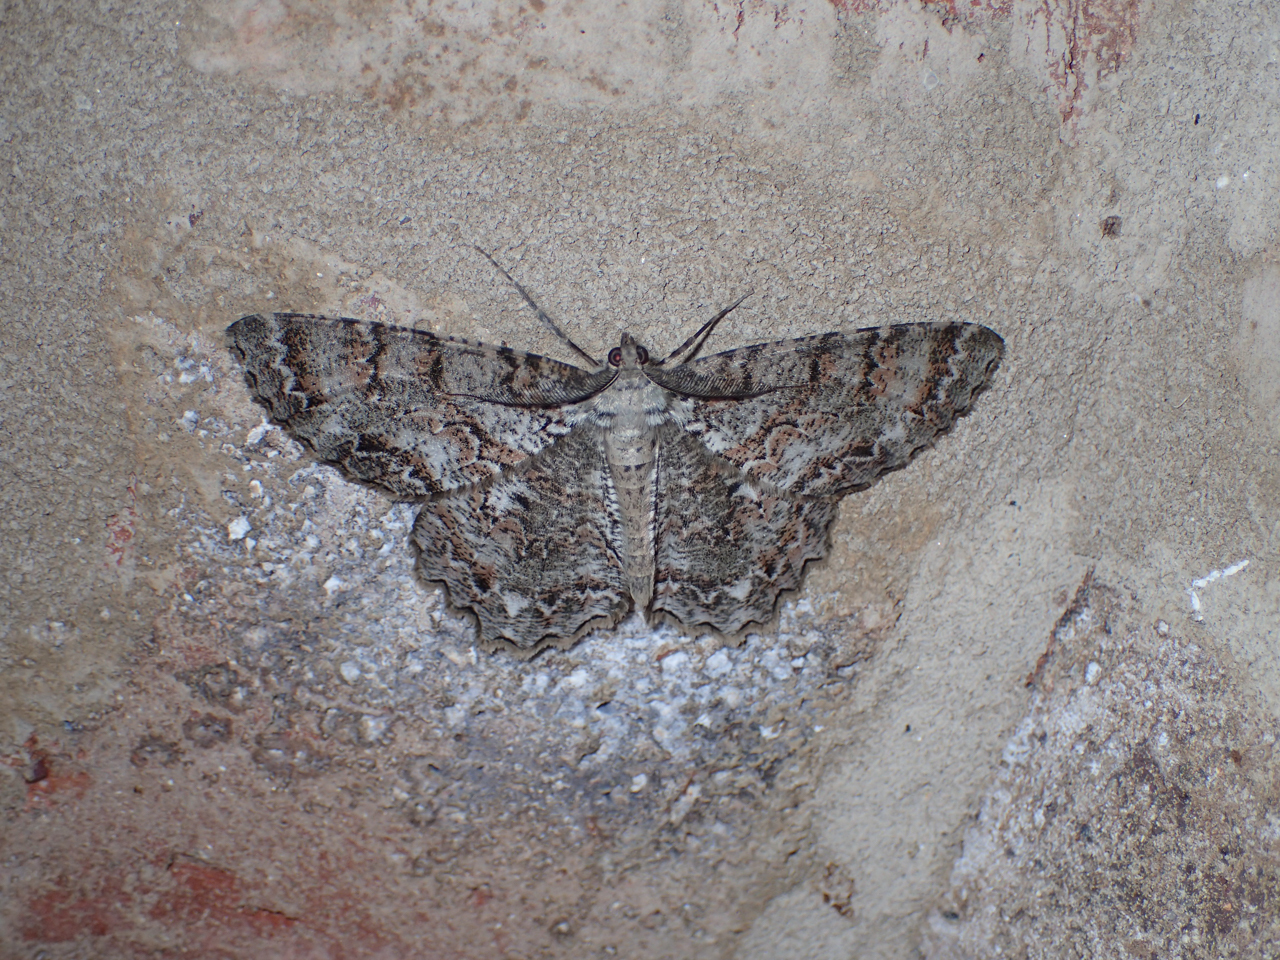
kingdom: Animalia
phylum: Arthropoda
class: Insecta
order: Lepidoptera
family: Geometridae
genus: Epimecis
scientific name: Epimecis hortaria
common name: Tulip-tree beauty
